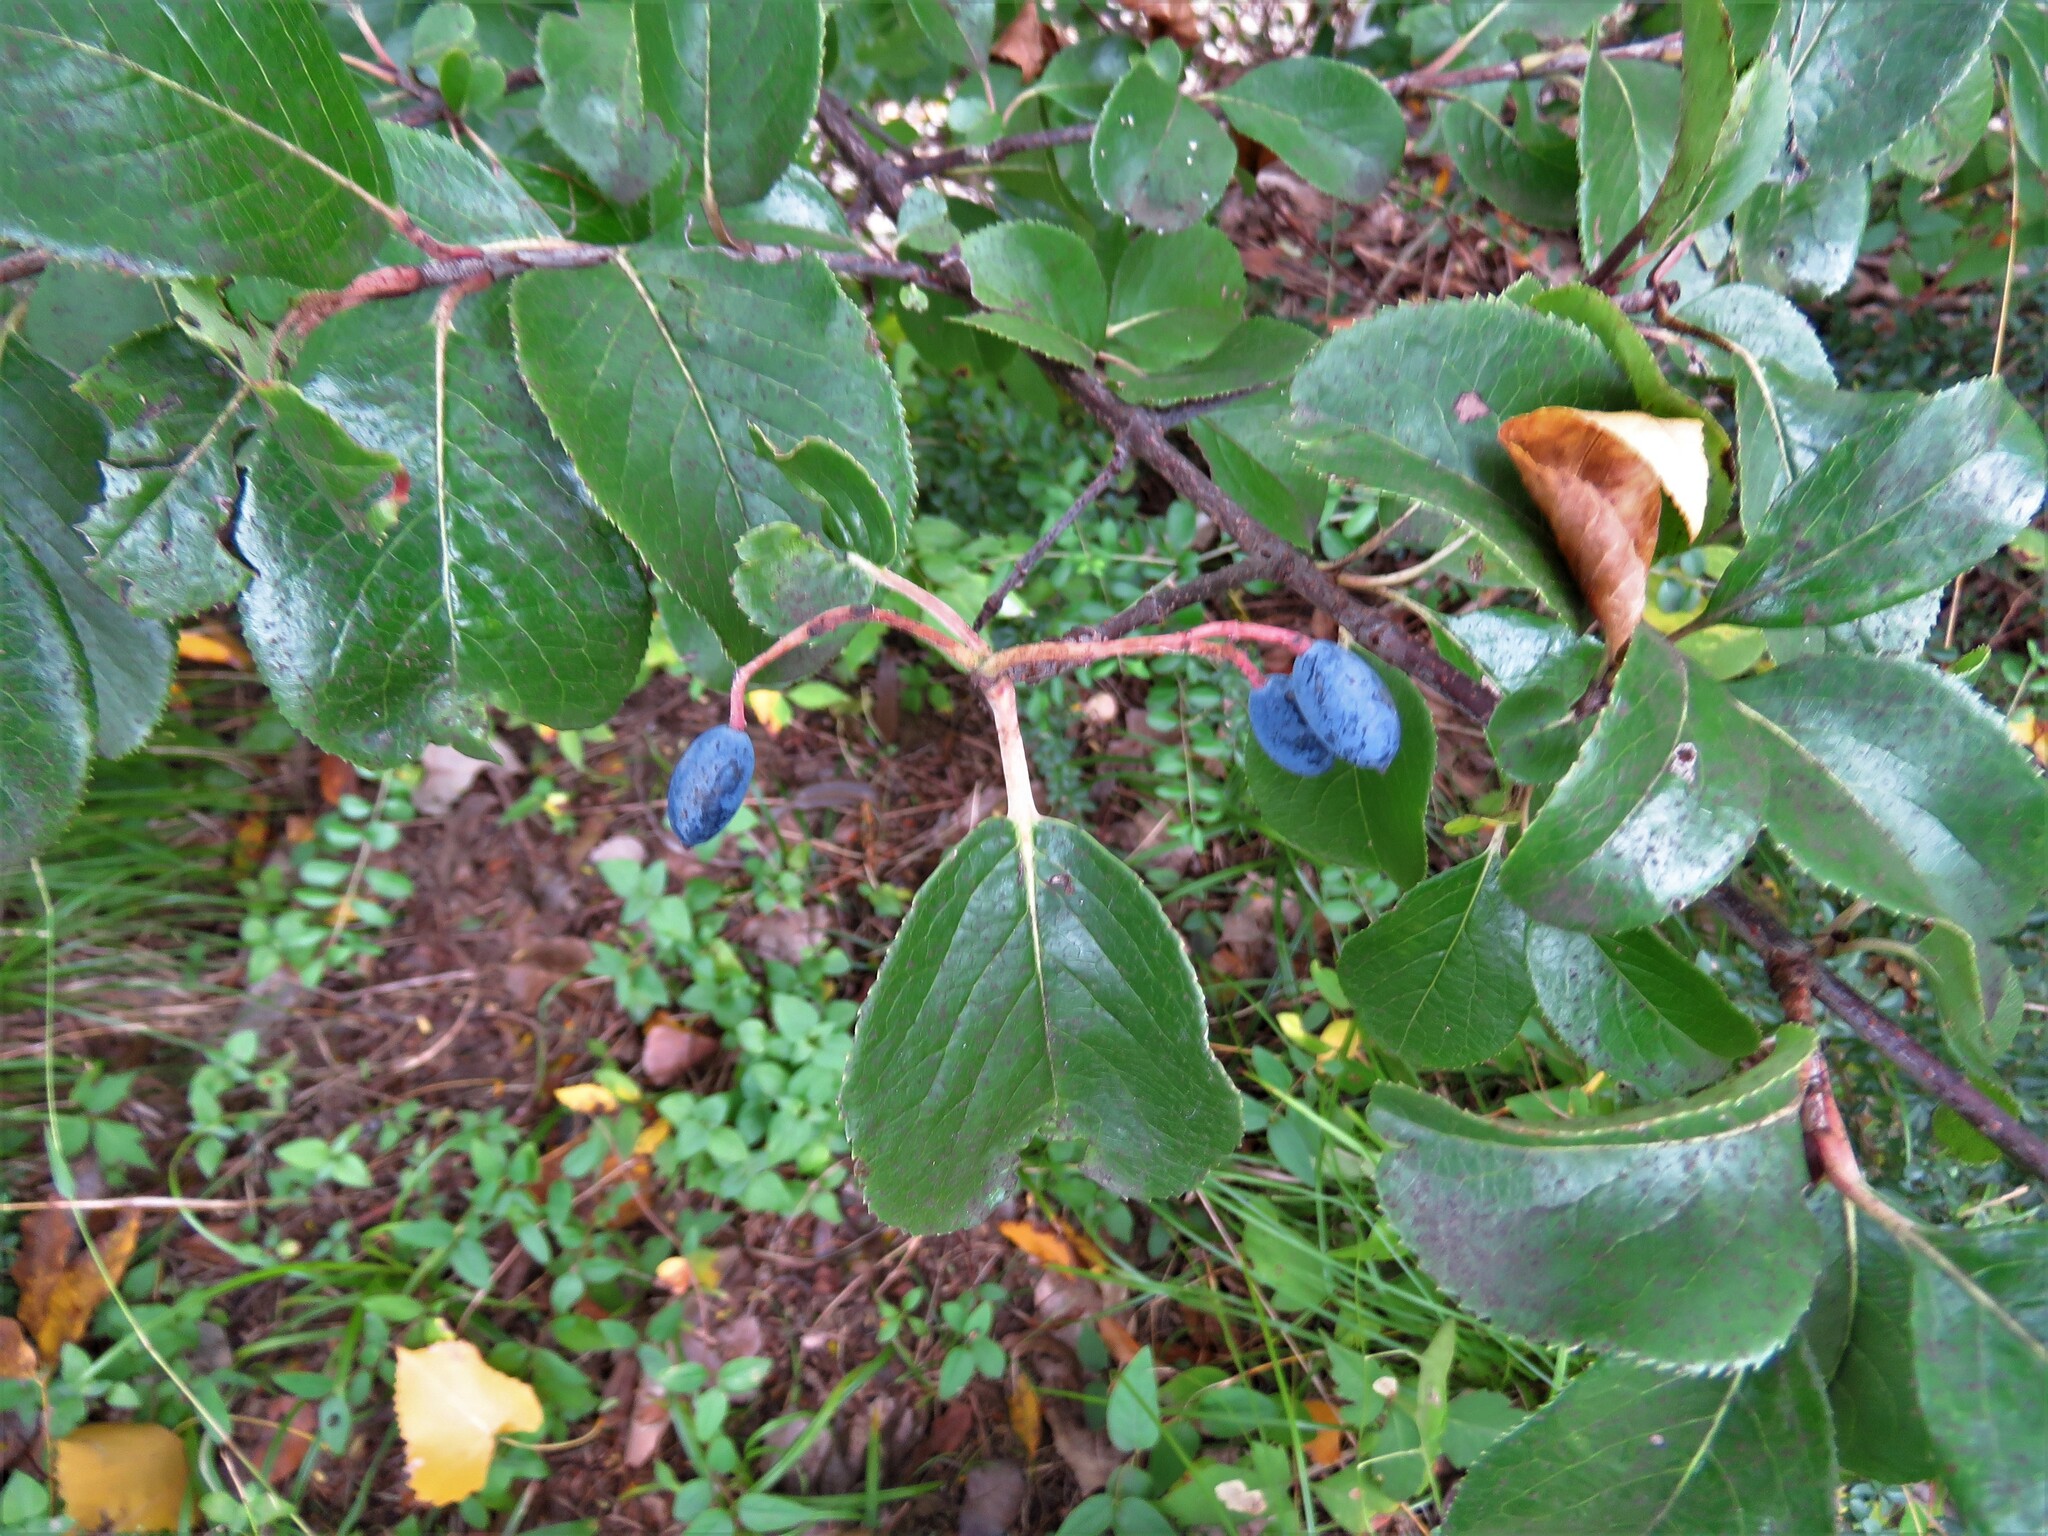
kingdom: Plantae
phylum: Tracheophyta
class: Magnoliopsida
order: Dipsacales
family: Viburnaceae
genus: Viburnum
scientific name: Viburnum rufidulum
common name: Blue haw
